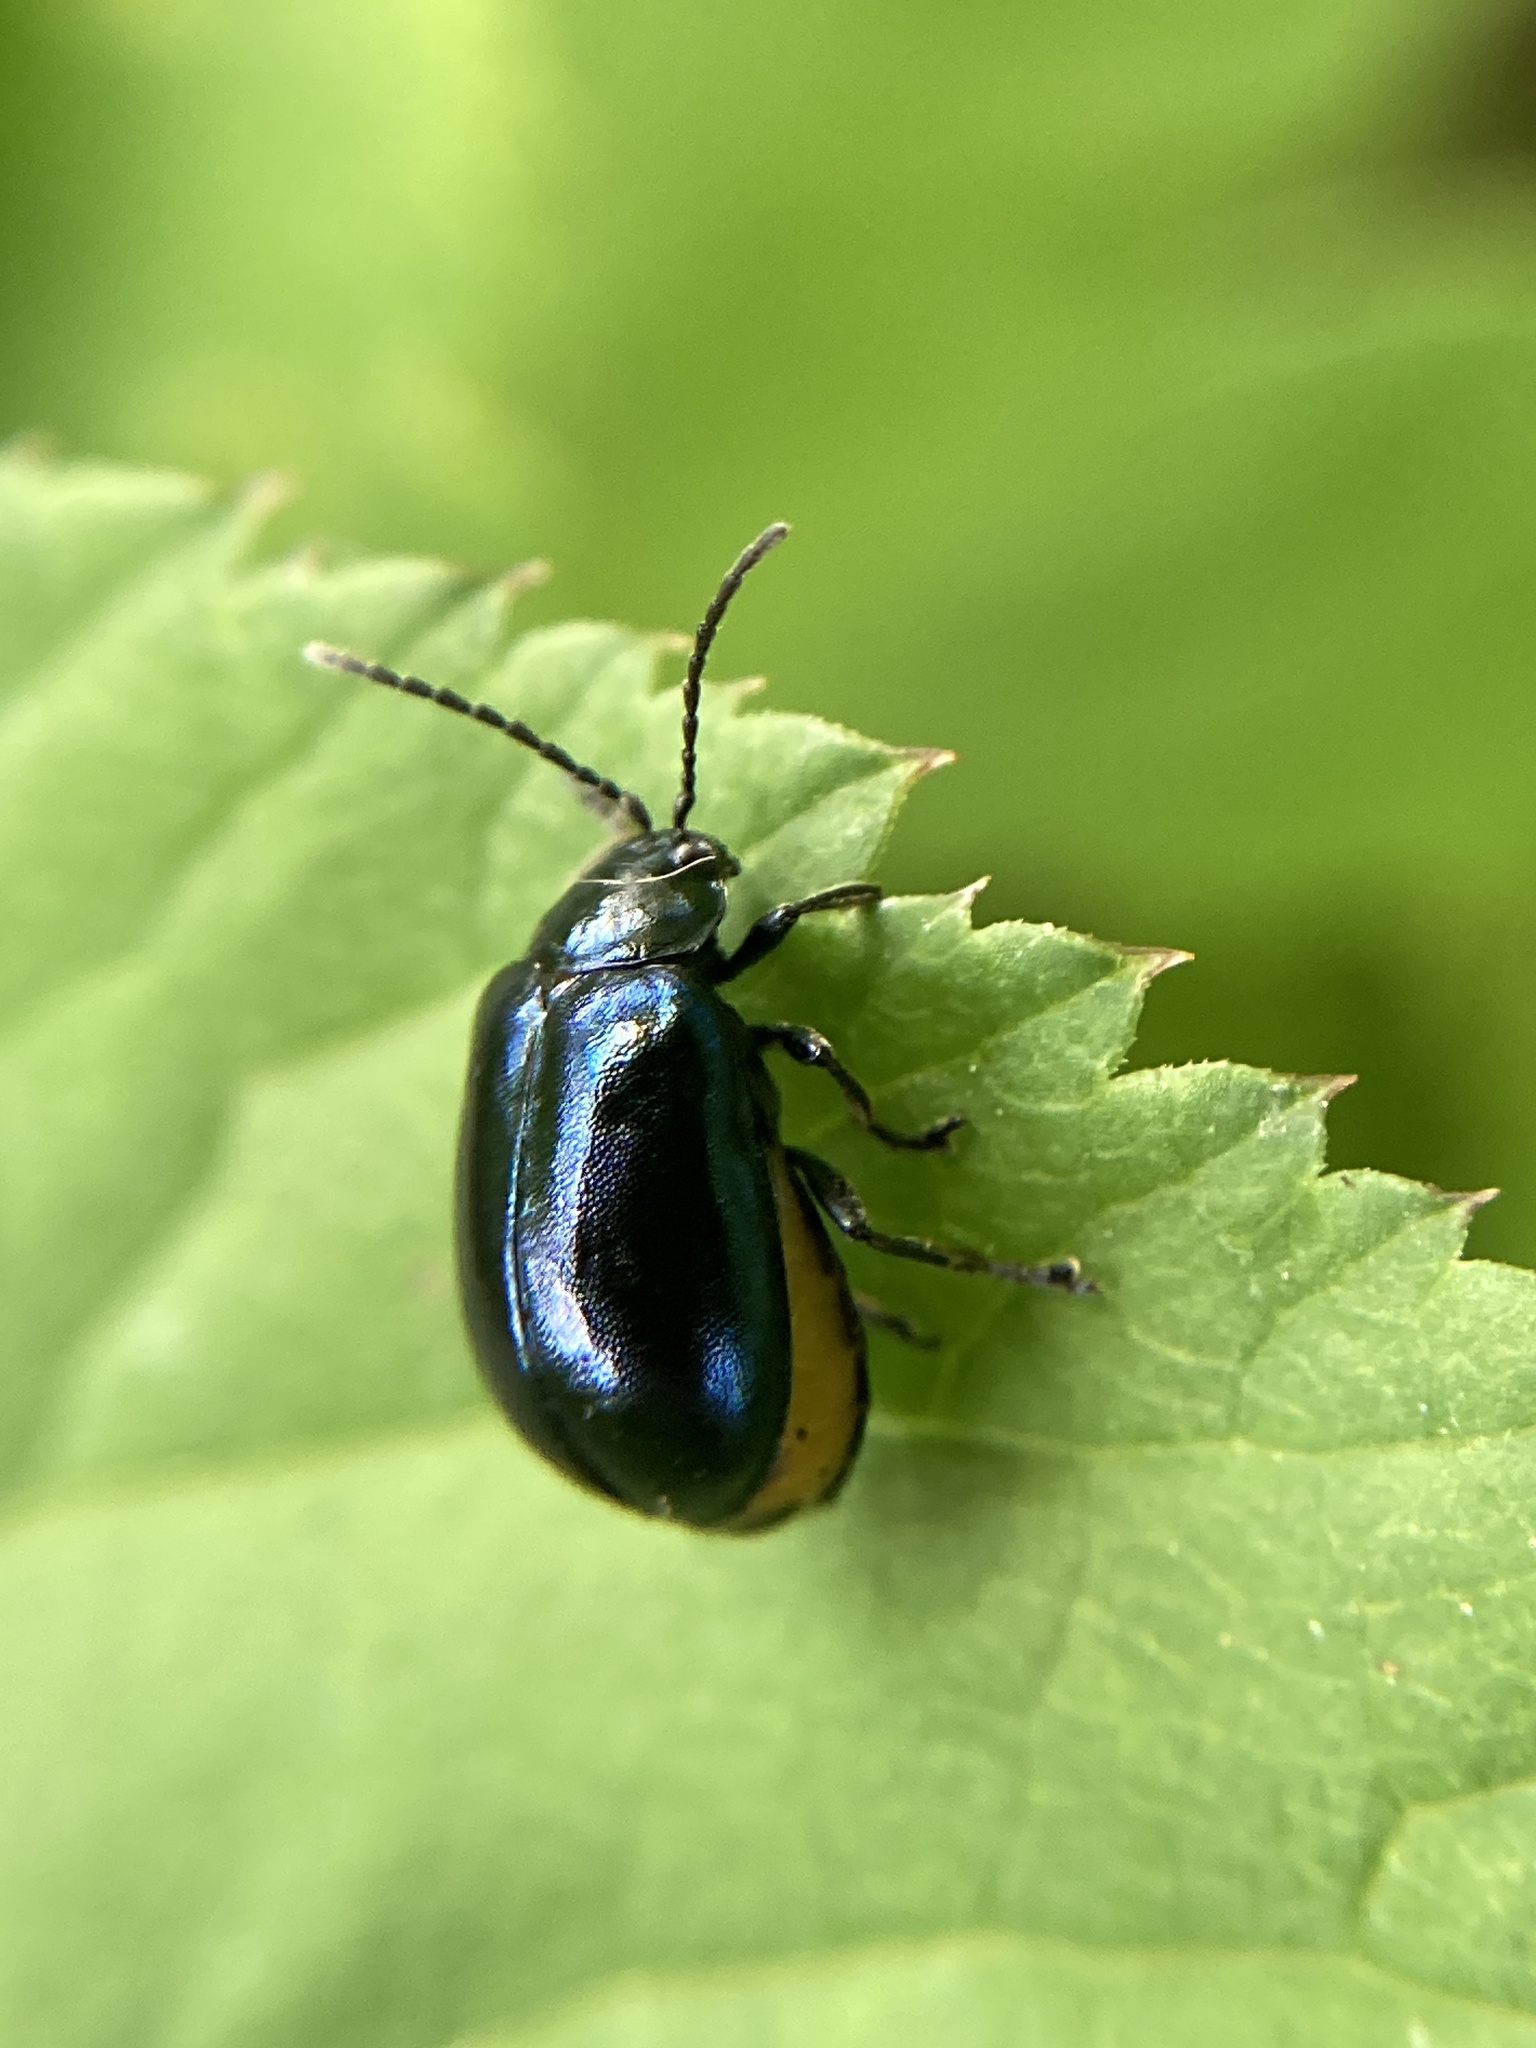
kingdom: Animalia
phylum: Arthropoda
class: Insecta
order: Coleoptera
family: Chrysomelidae
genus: Agelastica
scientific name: Agelastica alni
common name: Alder leaf beetle
